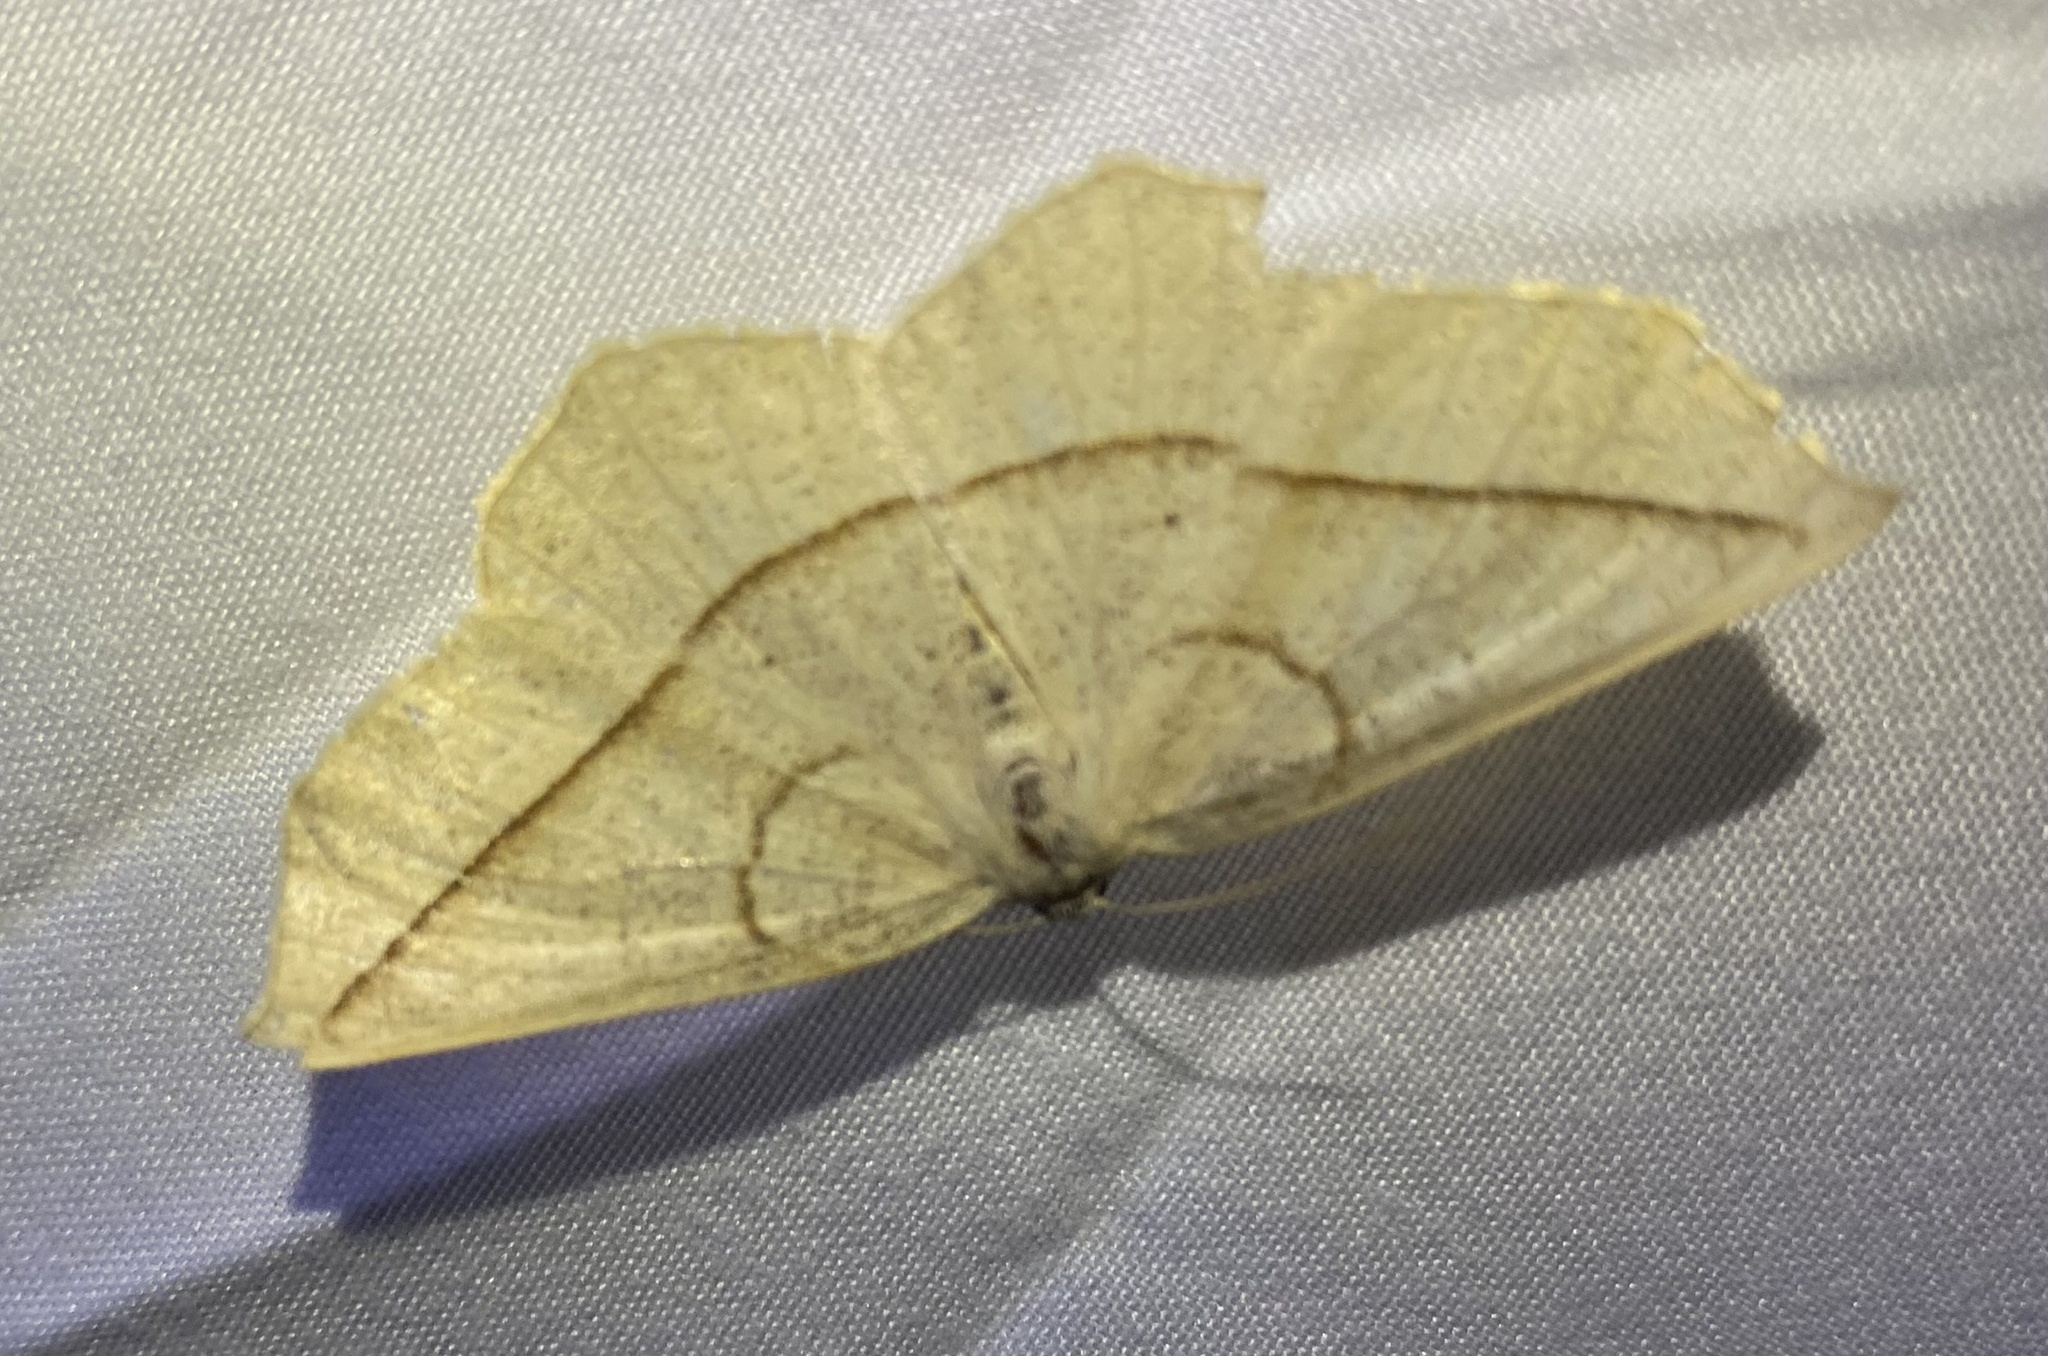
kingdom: Animalia
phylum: Arthropoda
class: Insecta
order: Lepidoptera
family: Geometridae
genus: Eusarca
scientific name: Eusarca confusaria
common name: Confused eusarca
